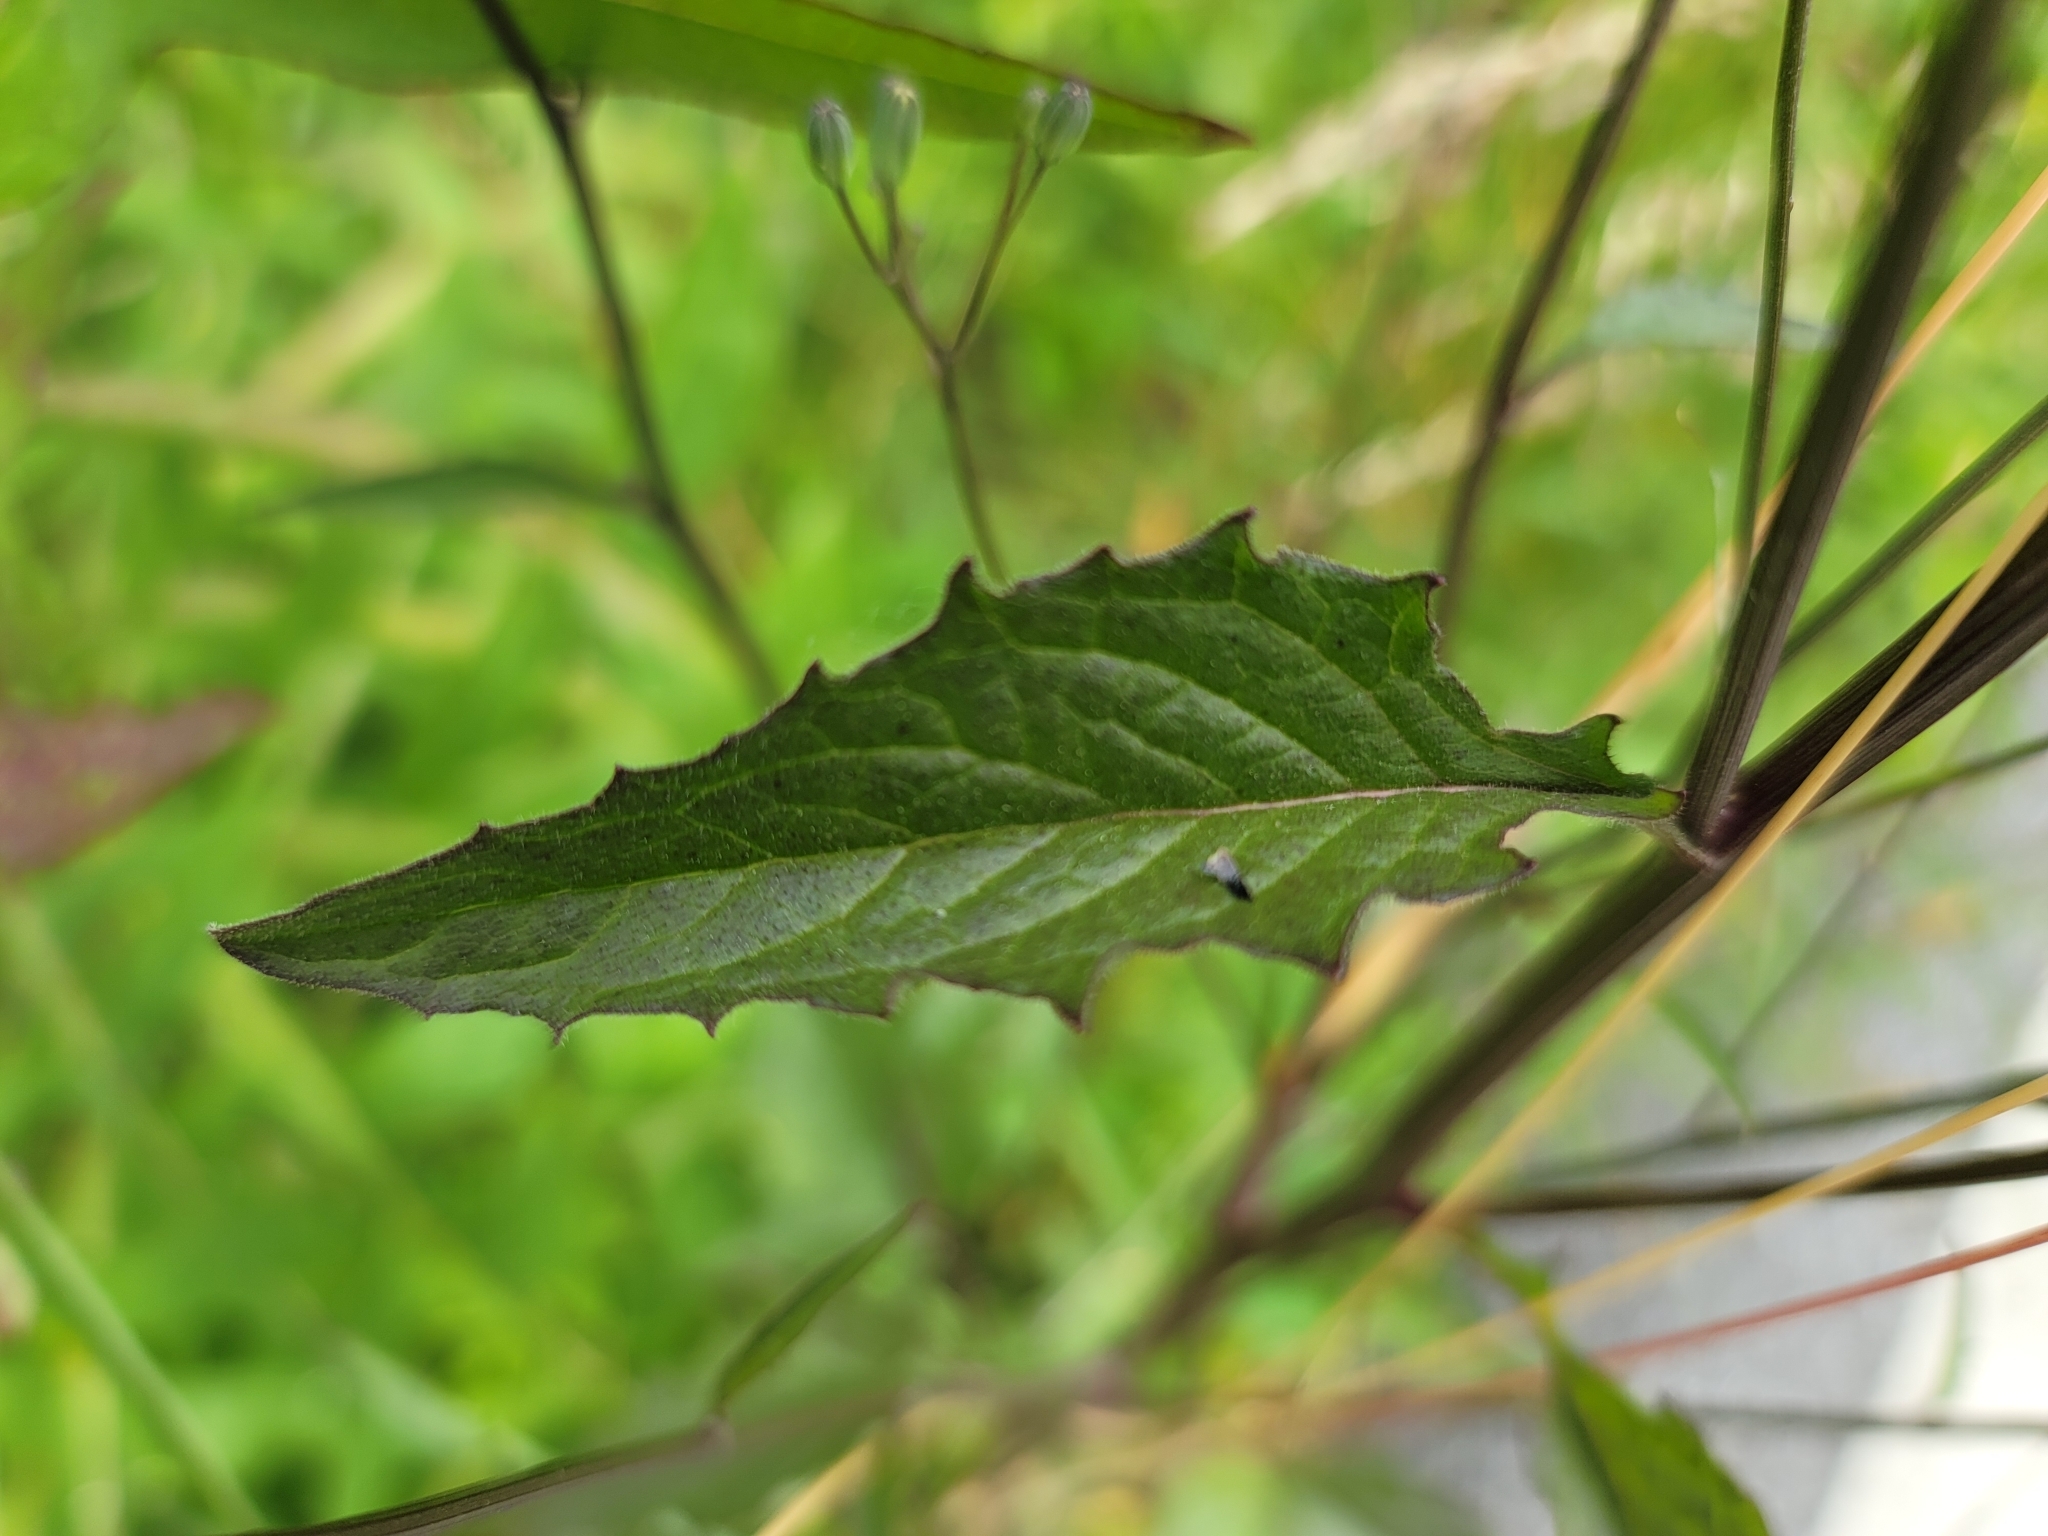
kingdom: Plantae
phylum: Tracheophyta
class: Magnoliopsida
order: Asterales
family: Asteraceae
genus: Lapsana
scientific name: Lapsana communis
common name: Nipplewort
